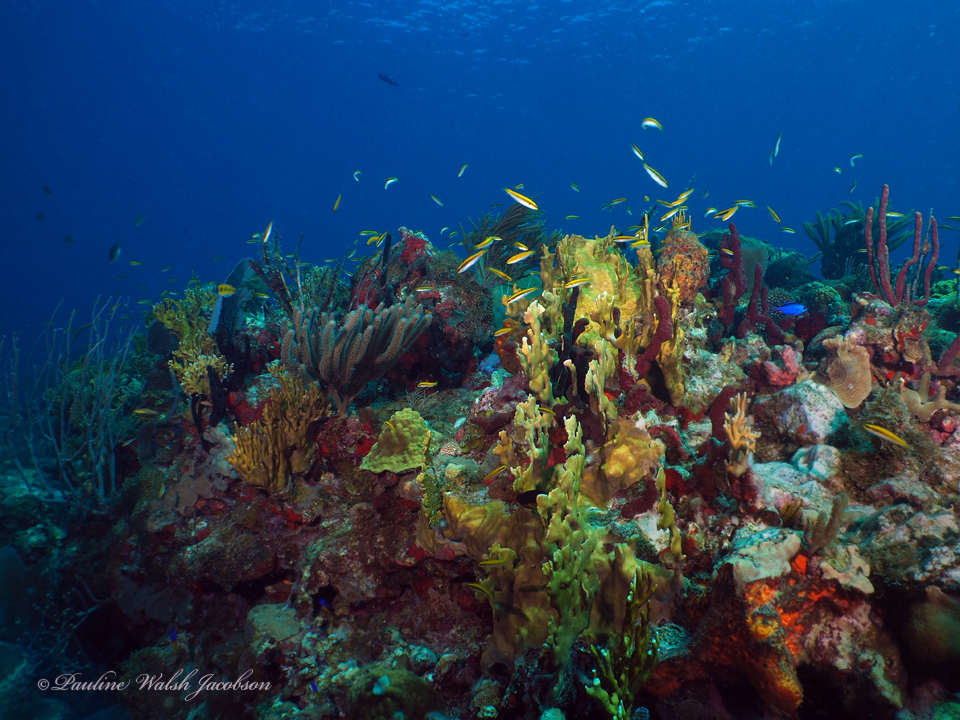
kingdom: Animalia
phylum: Chordata
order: Perciformes
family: Labridae
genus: Thalassoma
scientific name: Thalassoma bifasciatum
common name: Bluehead wrasse
